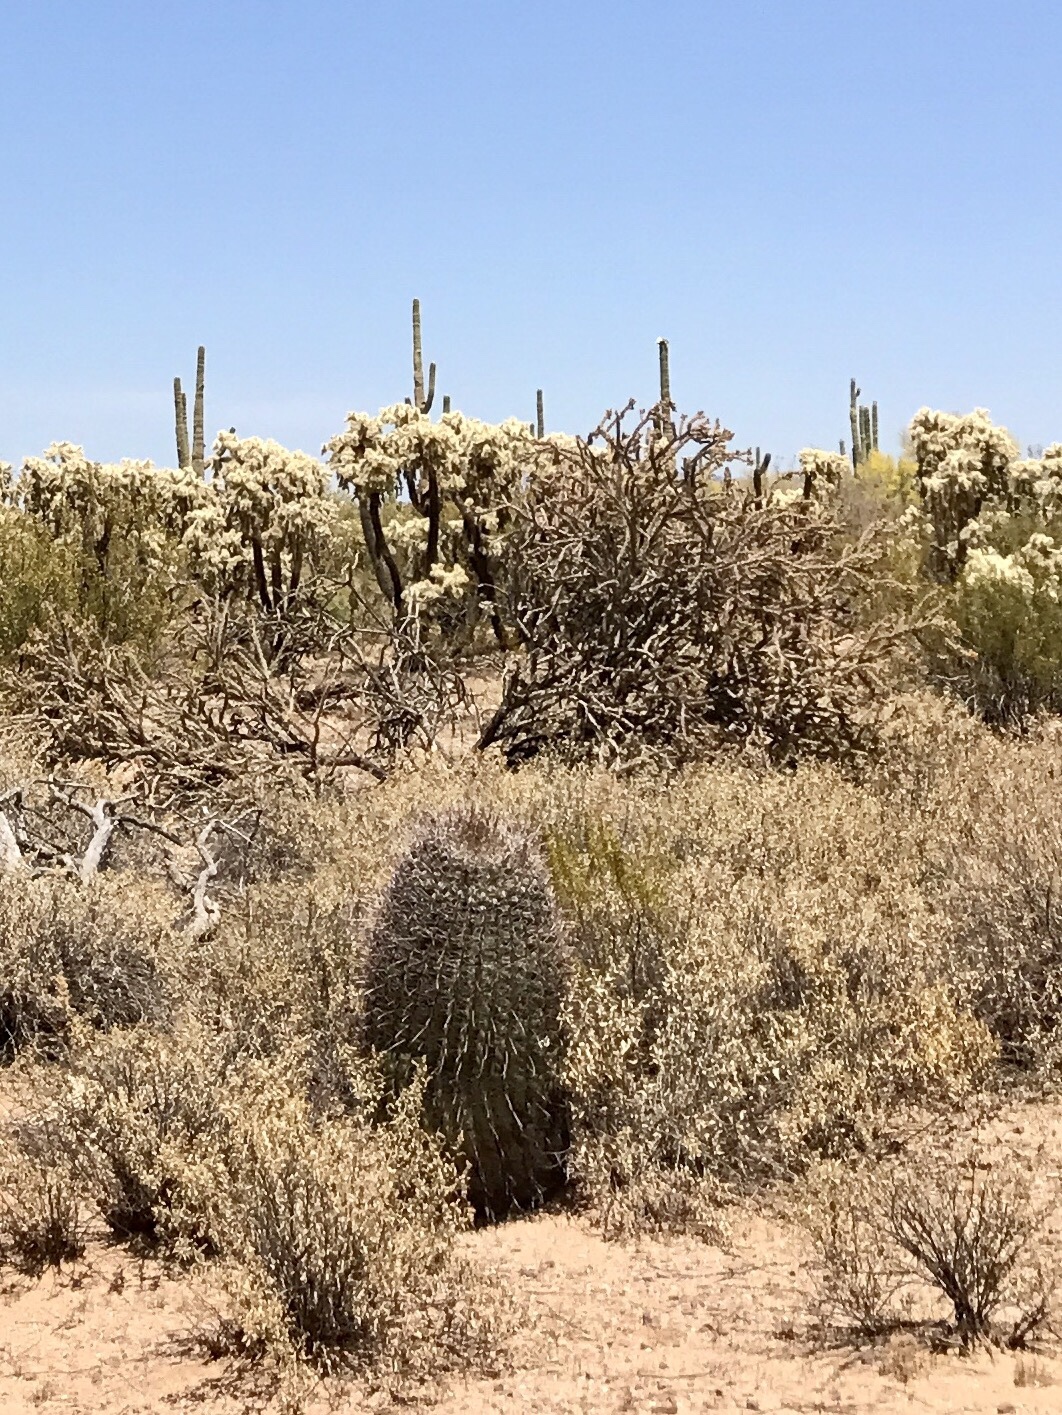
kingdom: Plantae
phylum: Tracheophyta
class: Magnoliopsida
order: Caryophyllales
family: Cactaceae
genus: Ferocactus
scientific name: Ferocactus wislizeni
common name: Candy barrel cactus
